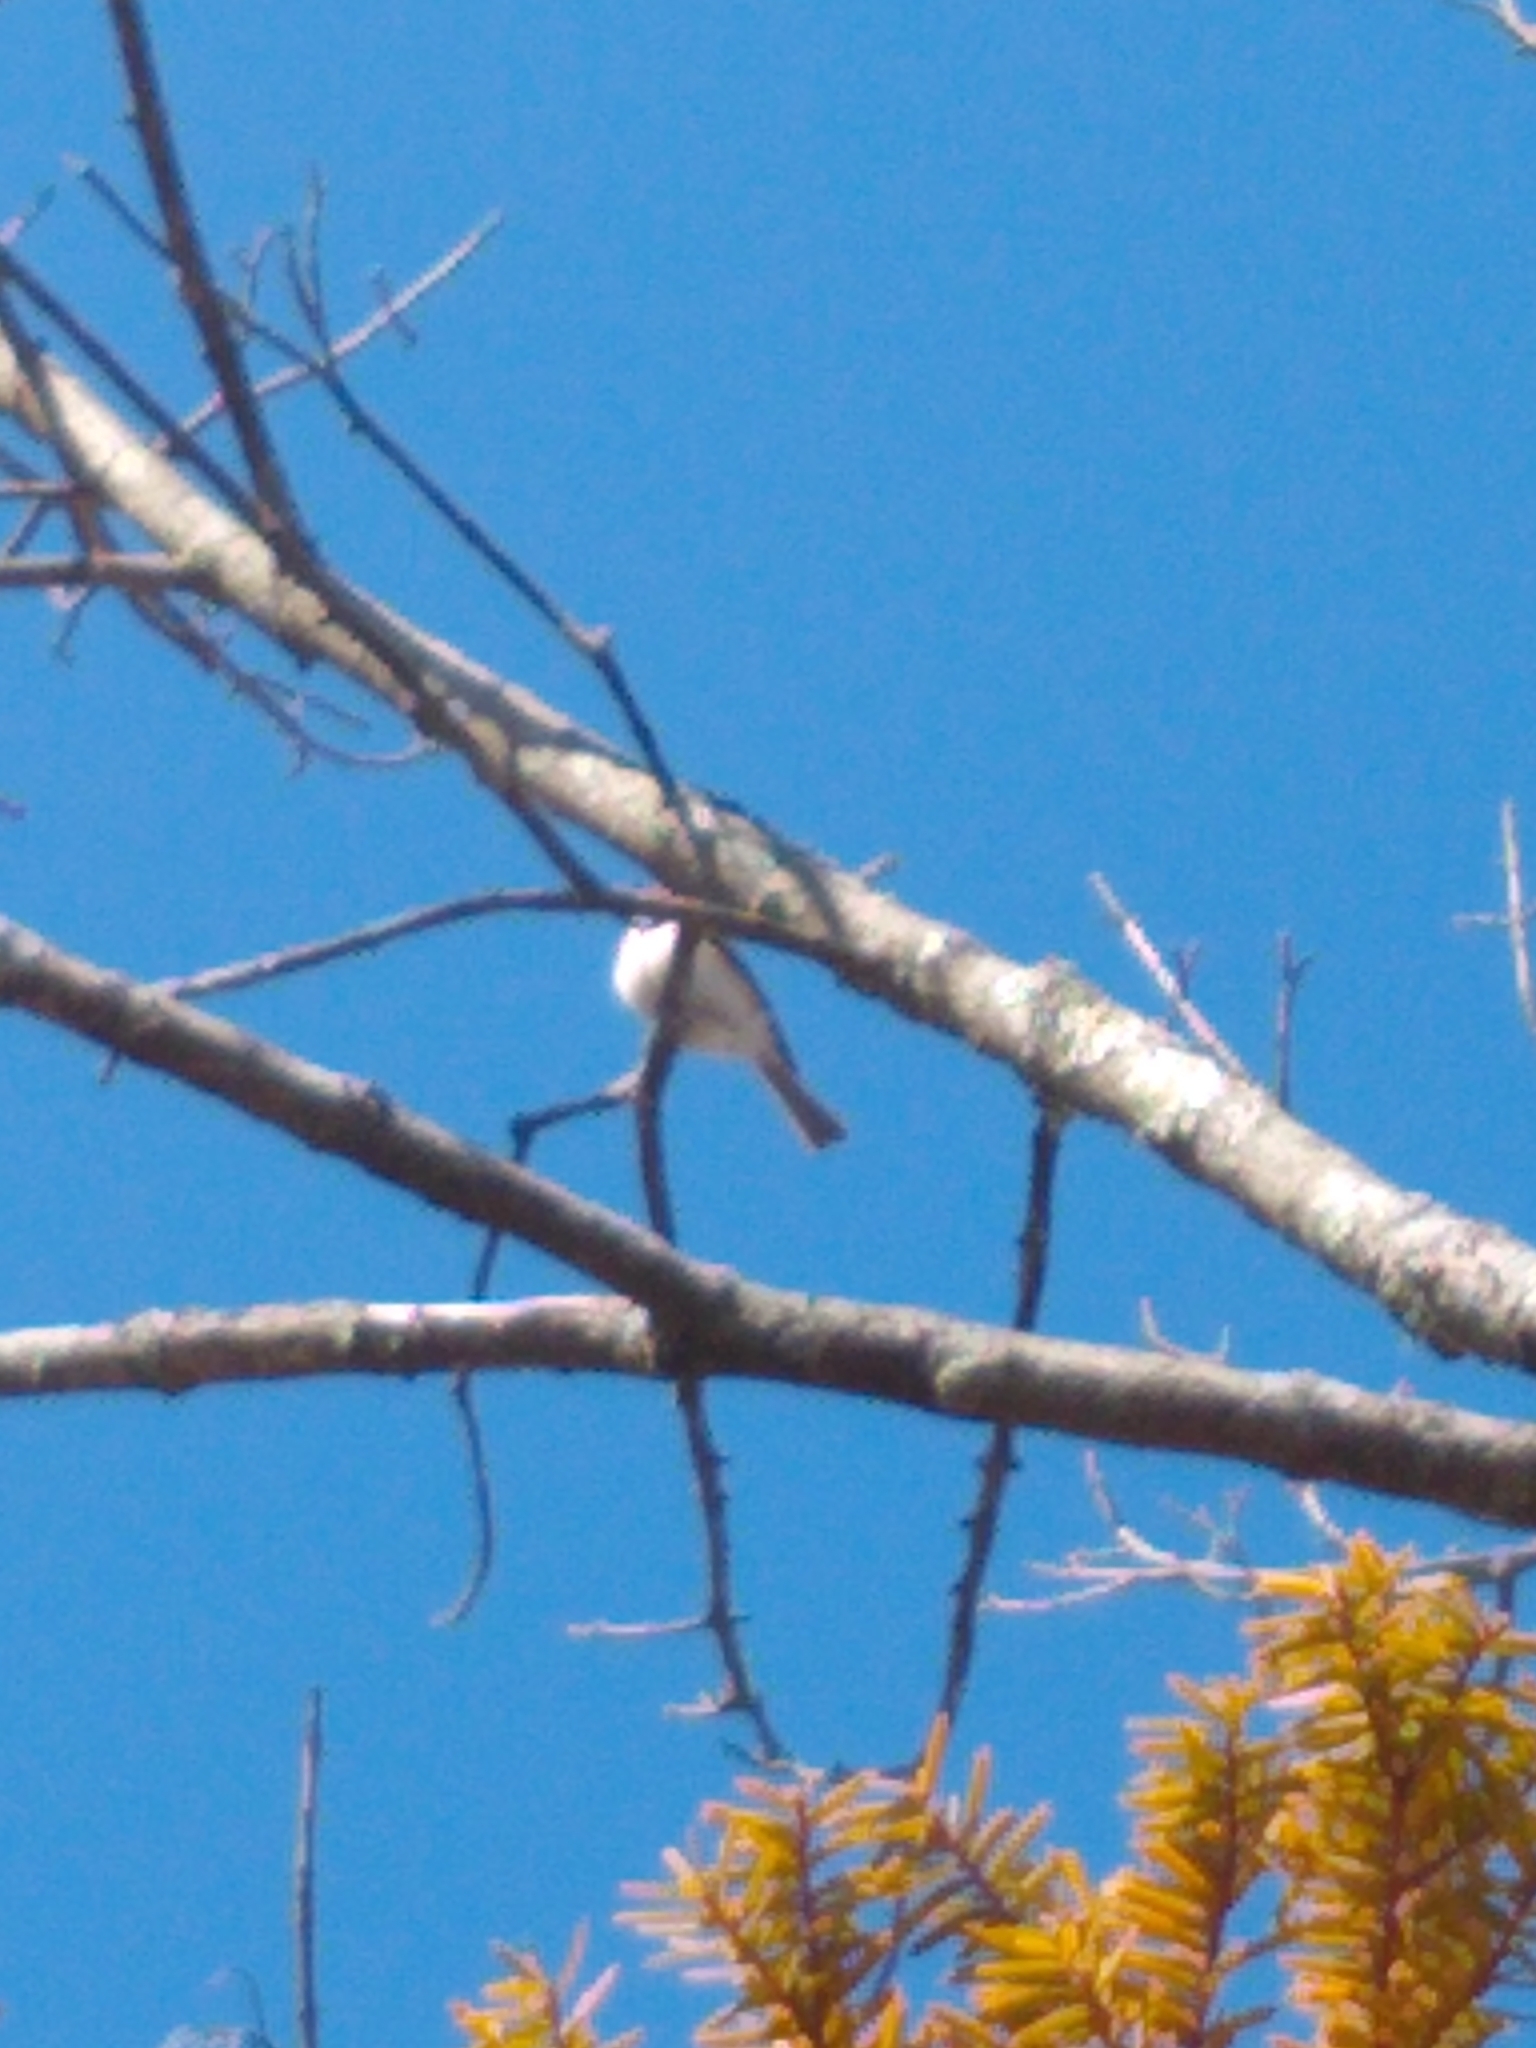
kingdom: Animalia
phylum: Chordata
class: Aves
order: Passeriformes
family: Paridae
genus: Baeolophus
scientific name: Baeolophus bicolor
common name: Tufted titmouse
